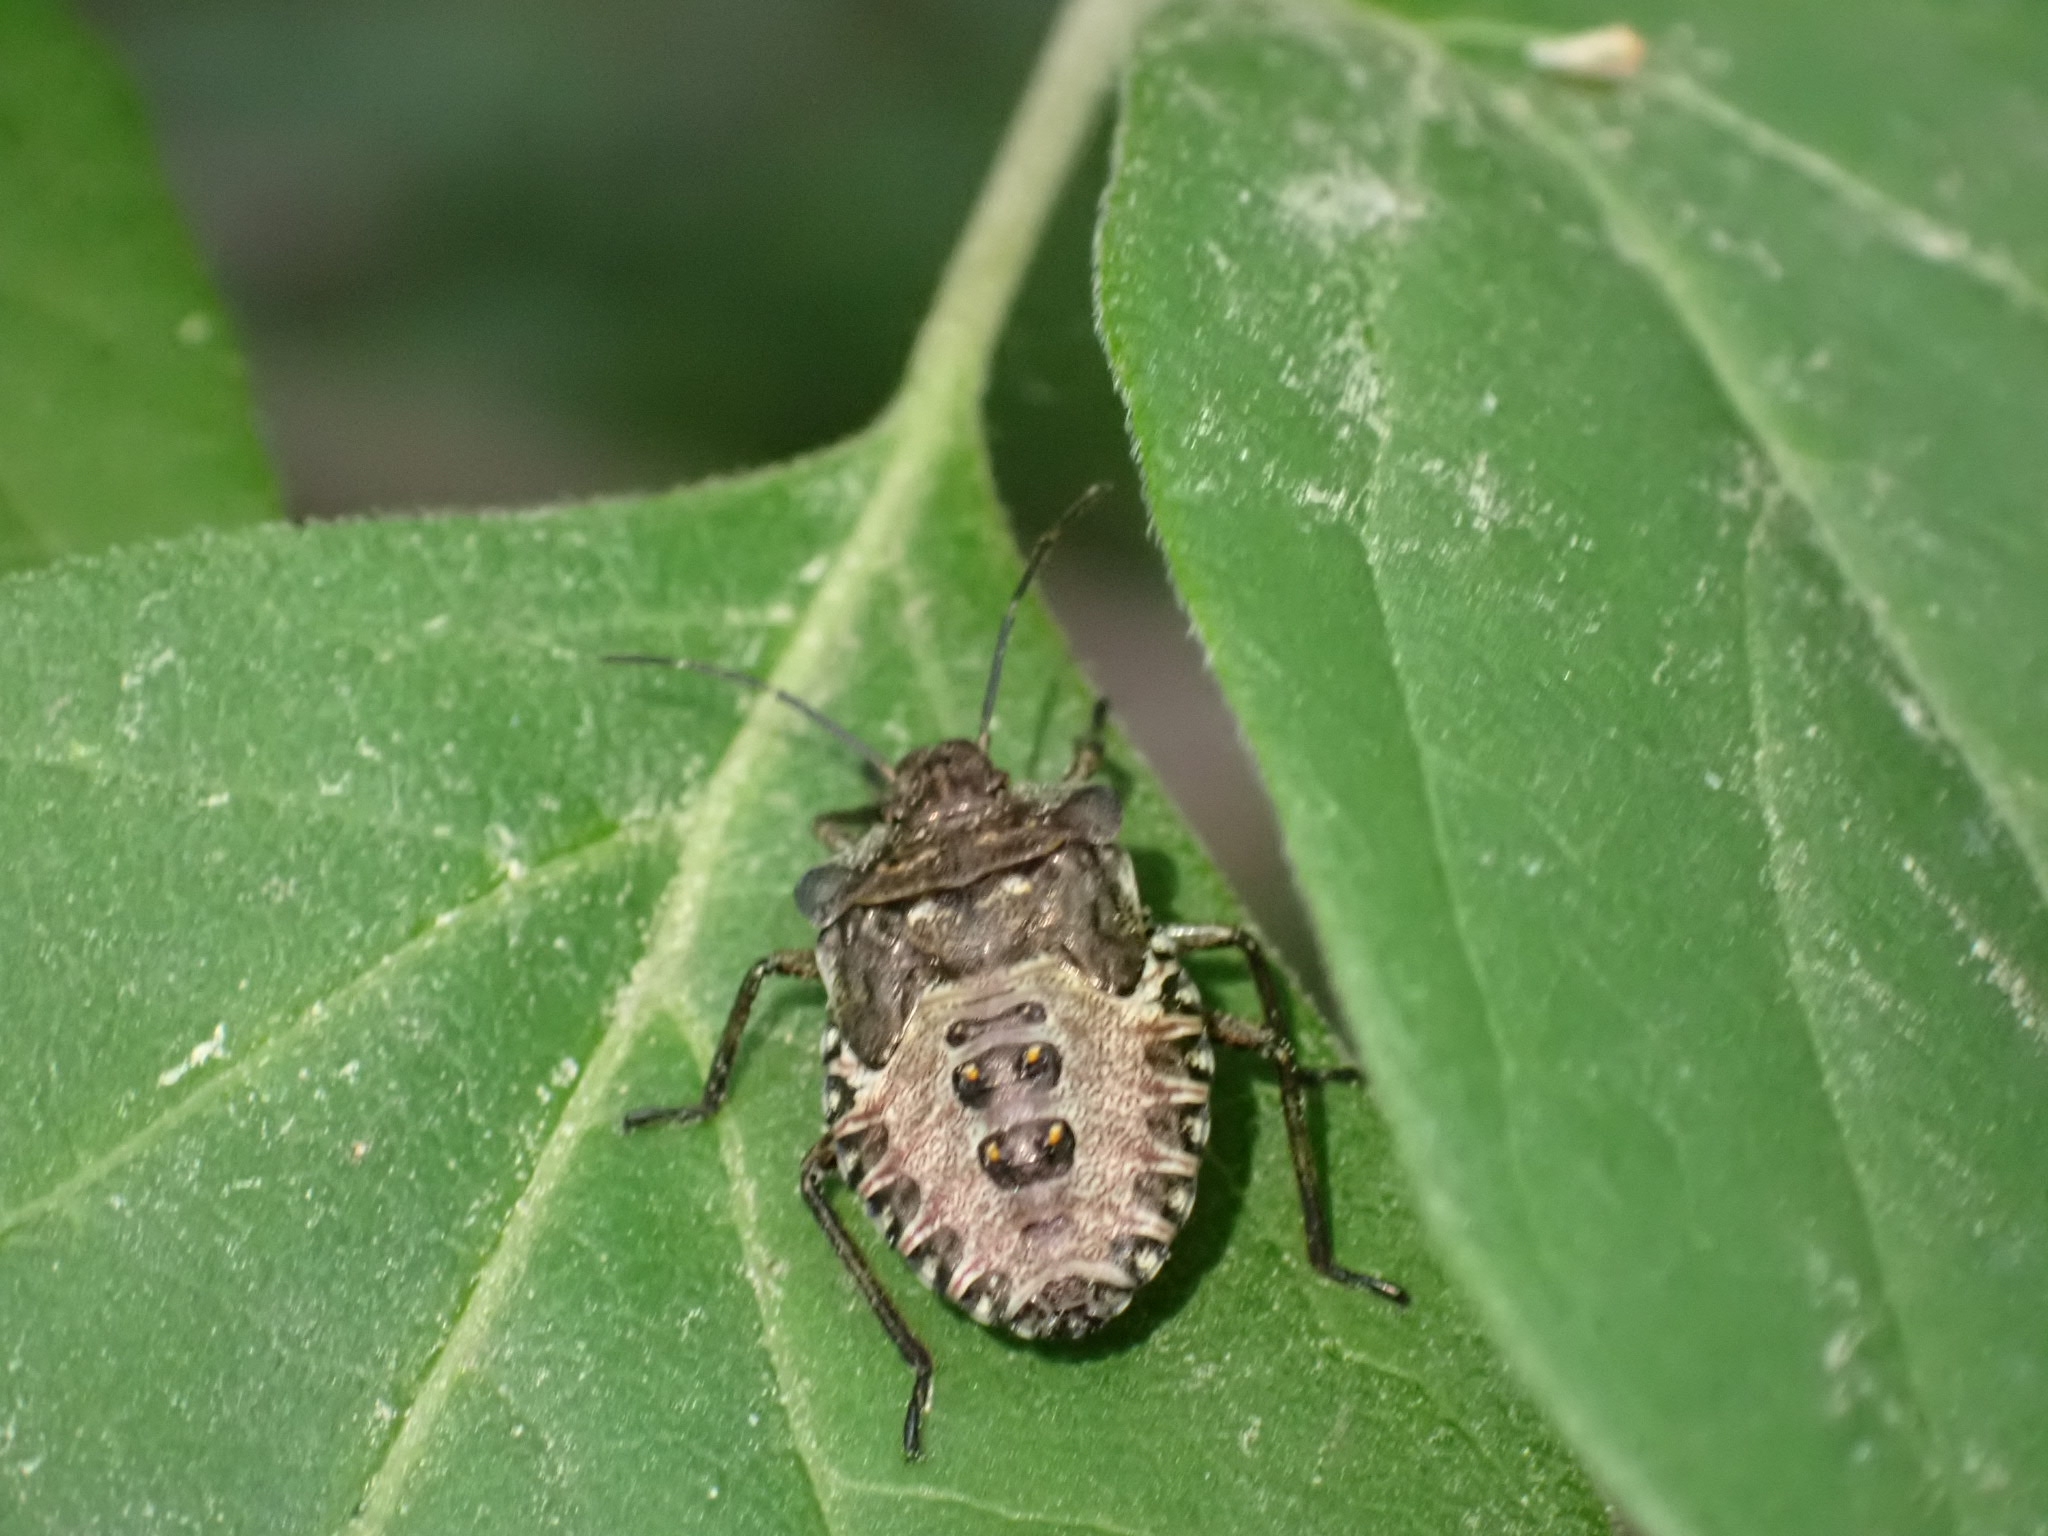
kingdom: Animalia
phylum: Arthropoda
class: Insecta
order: Hemiptera
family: Pentatomidae
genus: Pentatoma
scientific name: Pentatoma rufipes
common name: Forest bug
